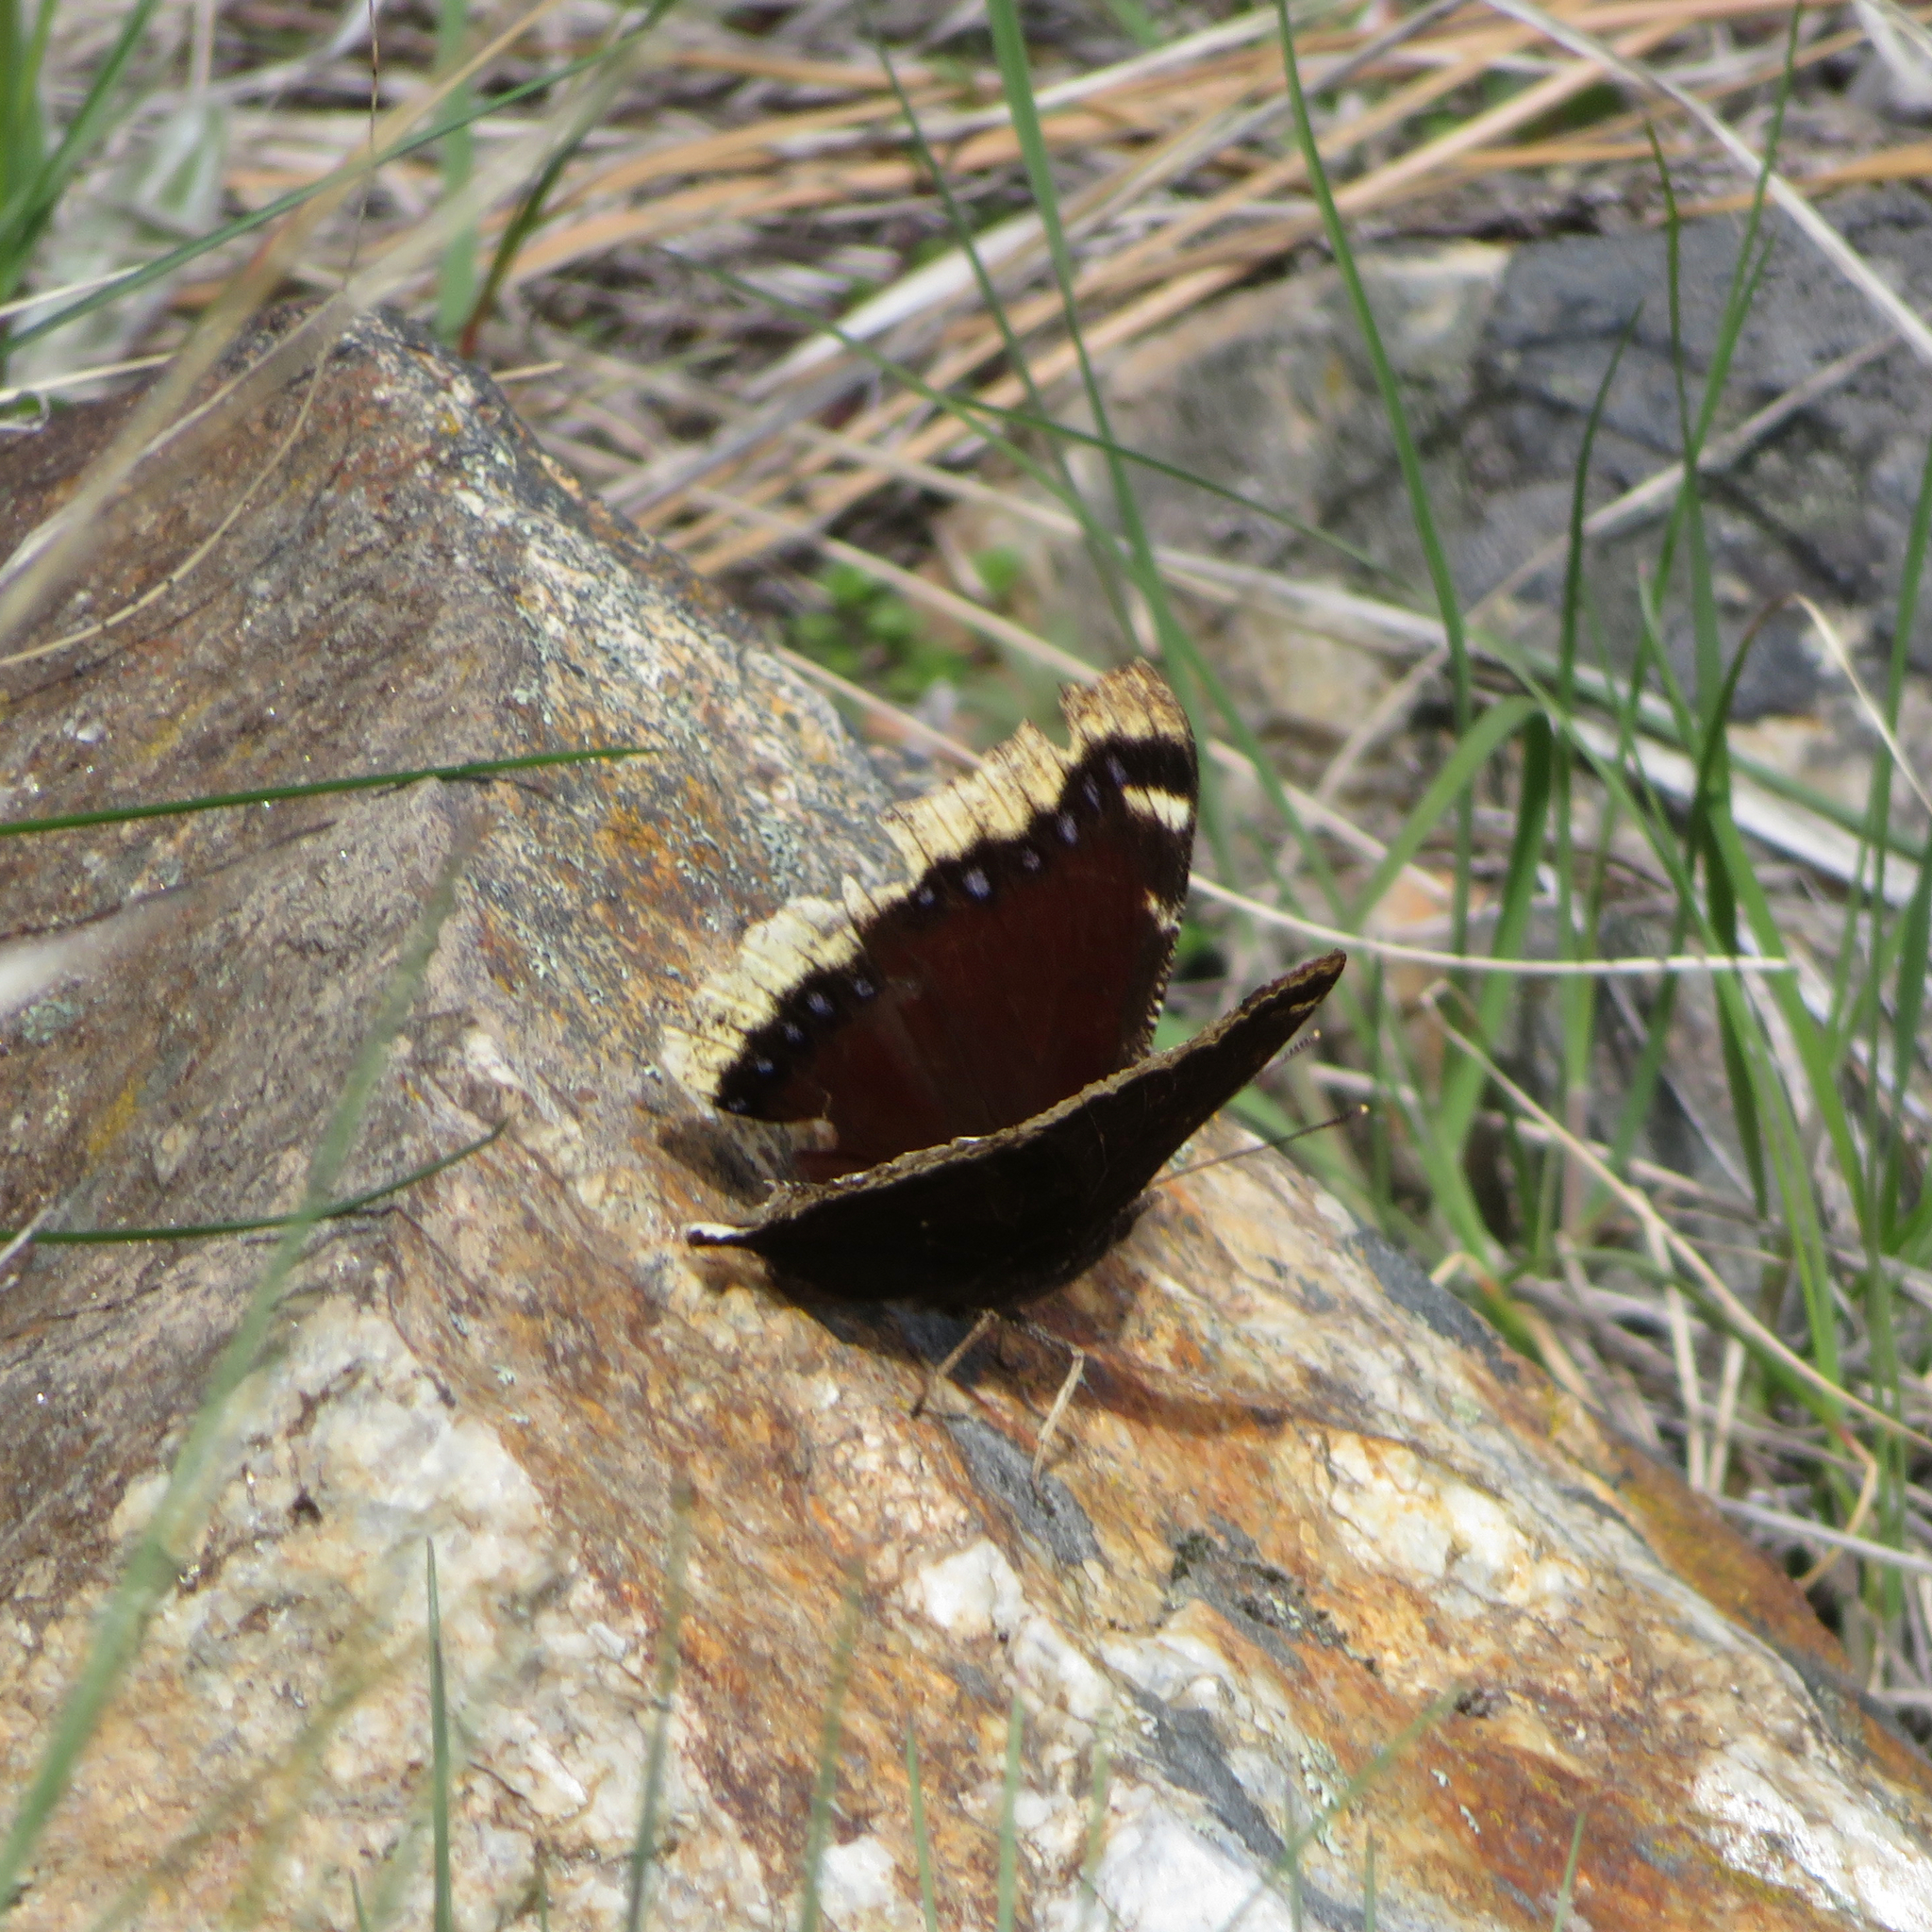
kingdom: Animalia
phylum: Arthropoda
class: Insecta
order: Lepidoptera
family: Nymphalidae
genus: Nymphalis
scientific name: Nymphalis antiopa
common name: Camberwell beauty
